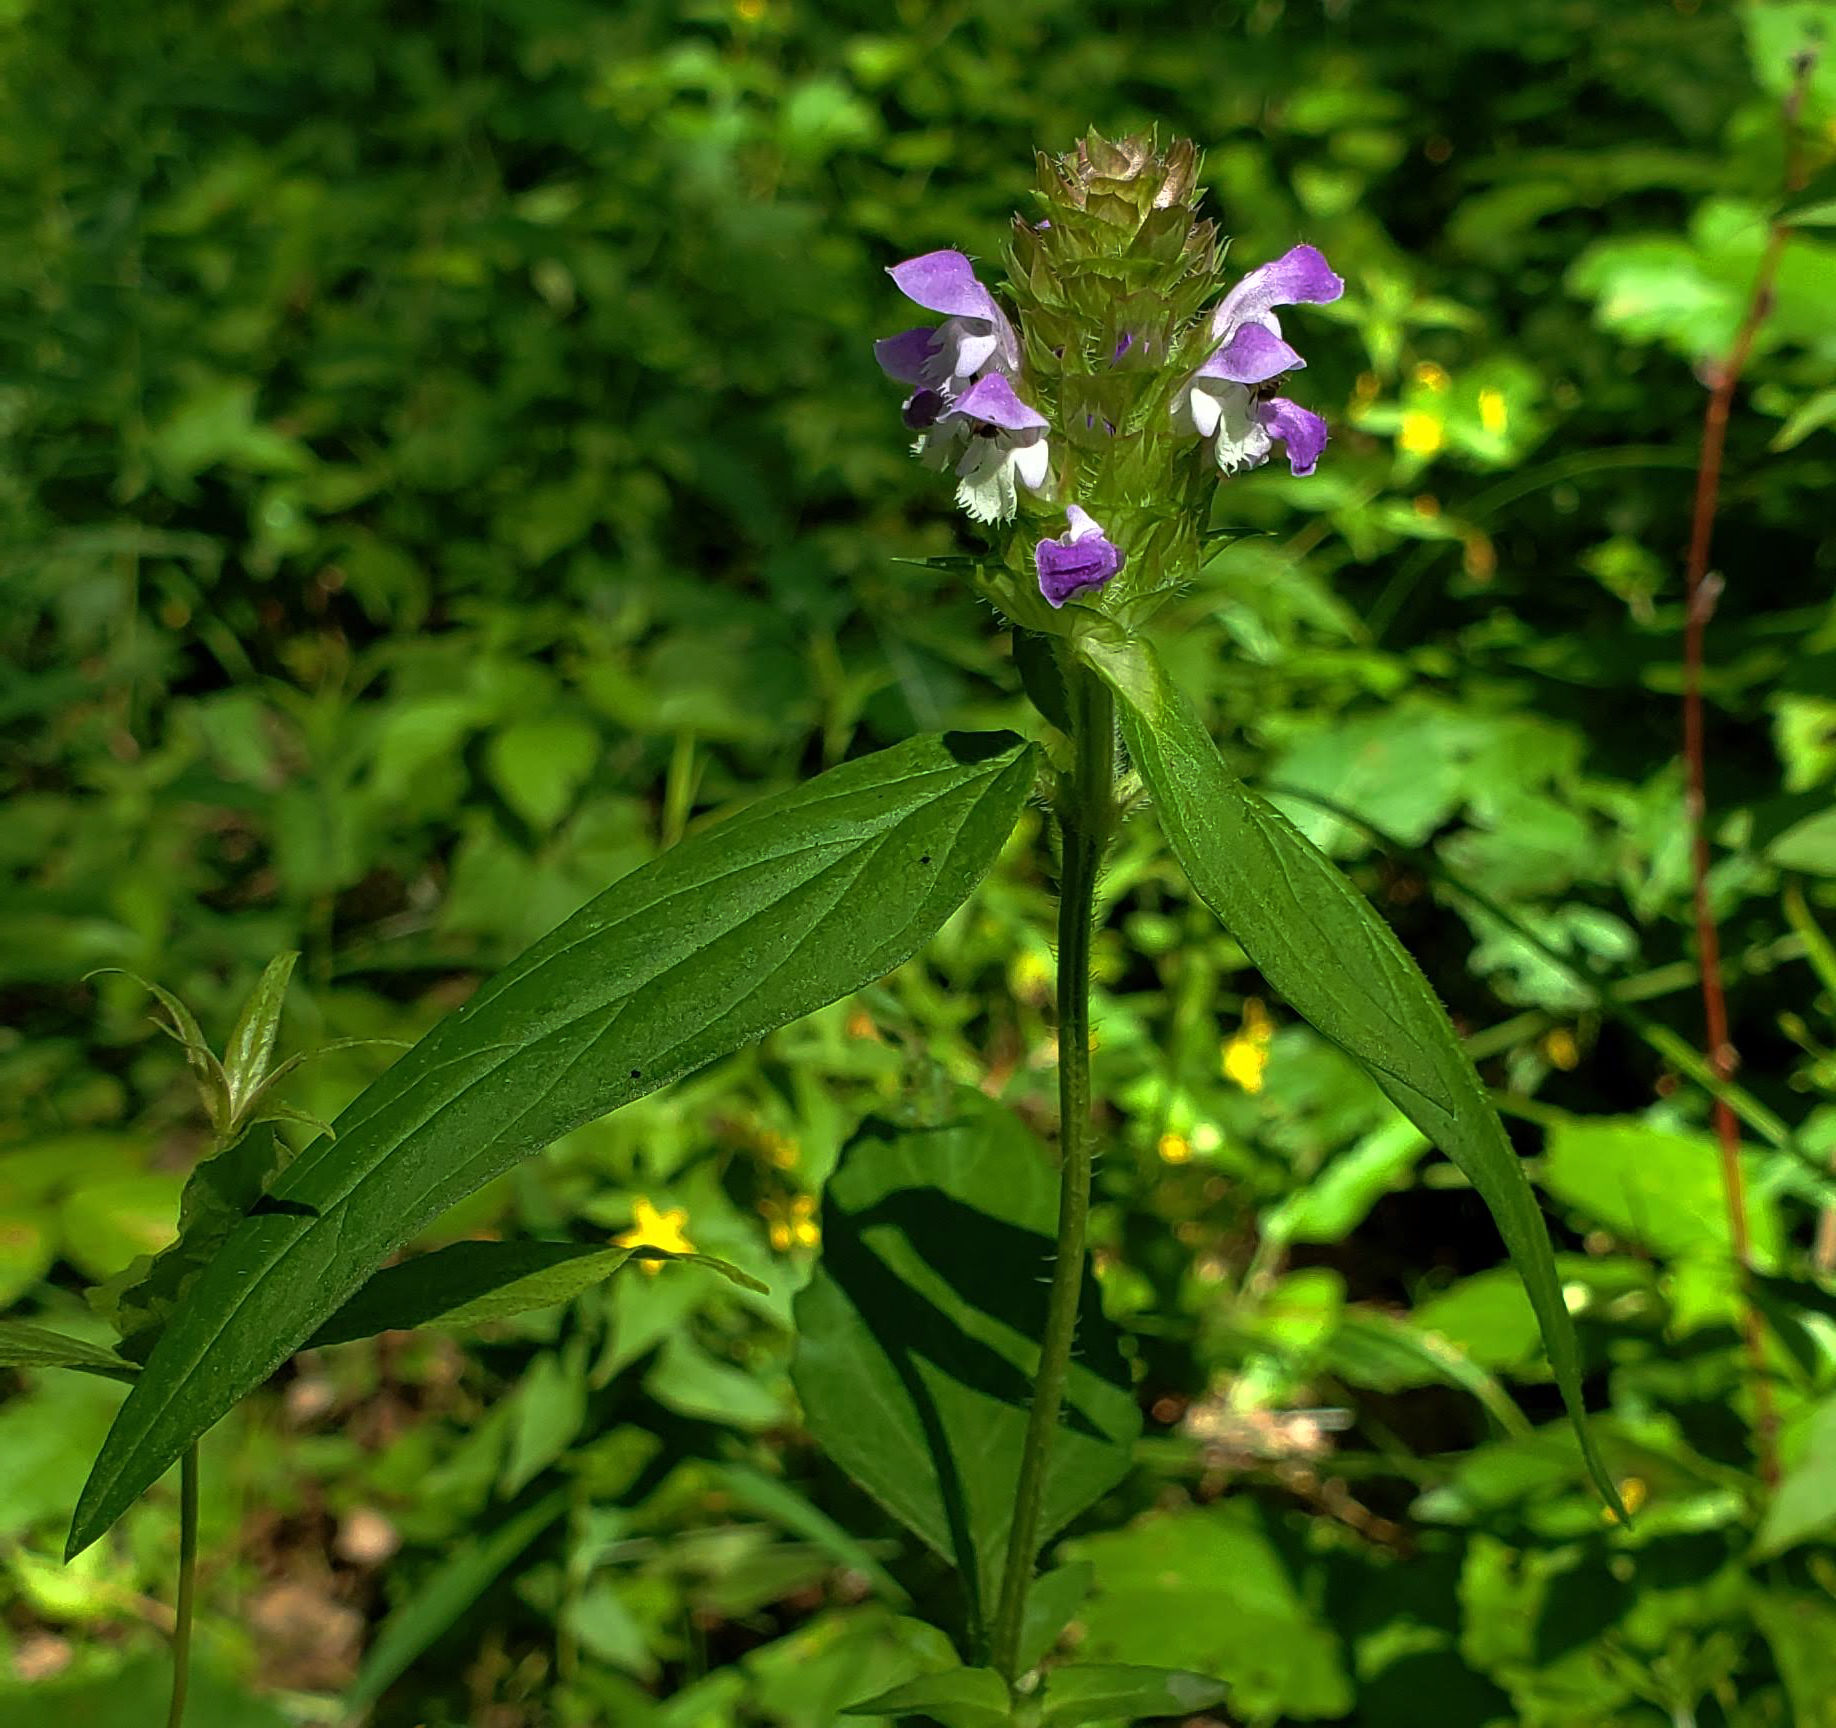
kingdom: Plantae
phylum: Tracheophyta
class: Magnoliopsida
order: Lamiales
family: Lamiaceae
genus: Prunella
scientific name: Prunella vulgaris
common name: Heal-all
